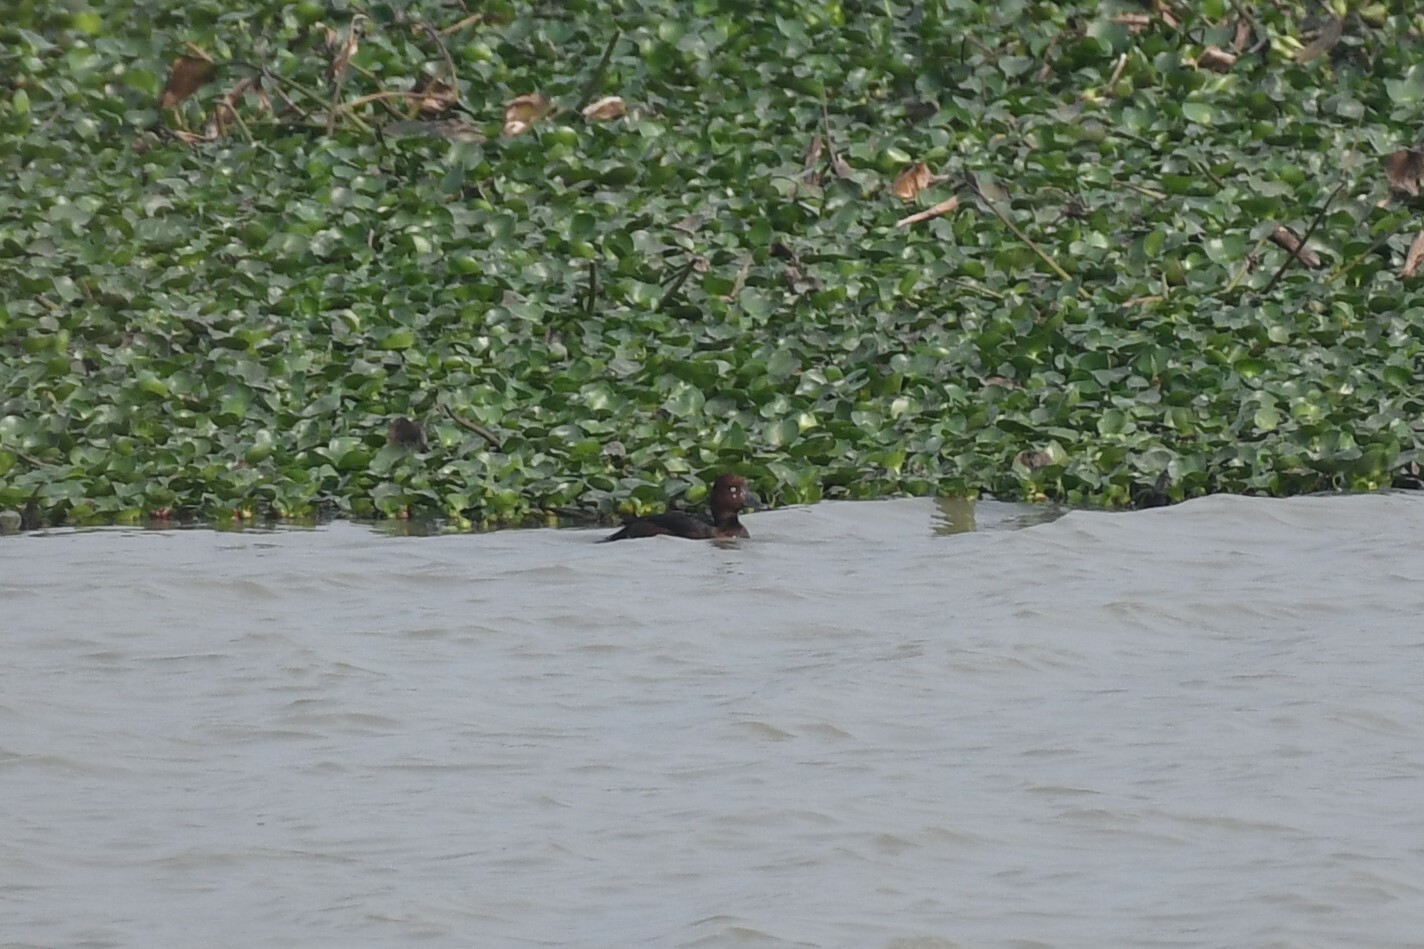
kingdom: Animalia
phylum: Chordata
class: Aves
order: Anseriformes
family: Anatidae
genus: Aythya
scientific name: Aythya nyroca
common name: Ferruginous duck
